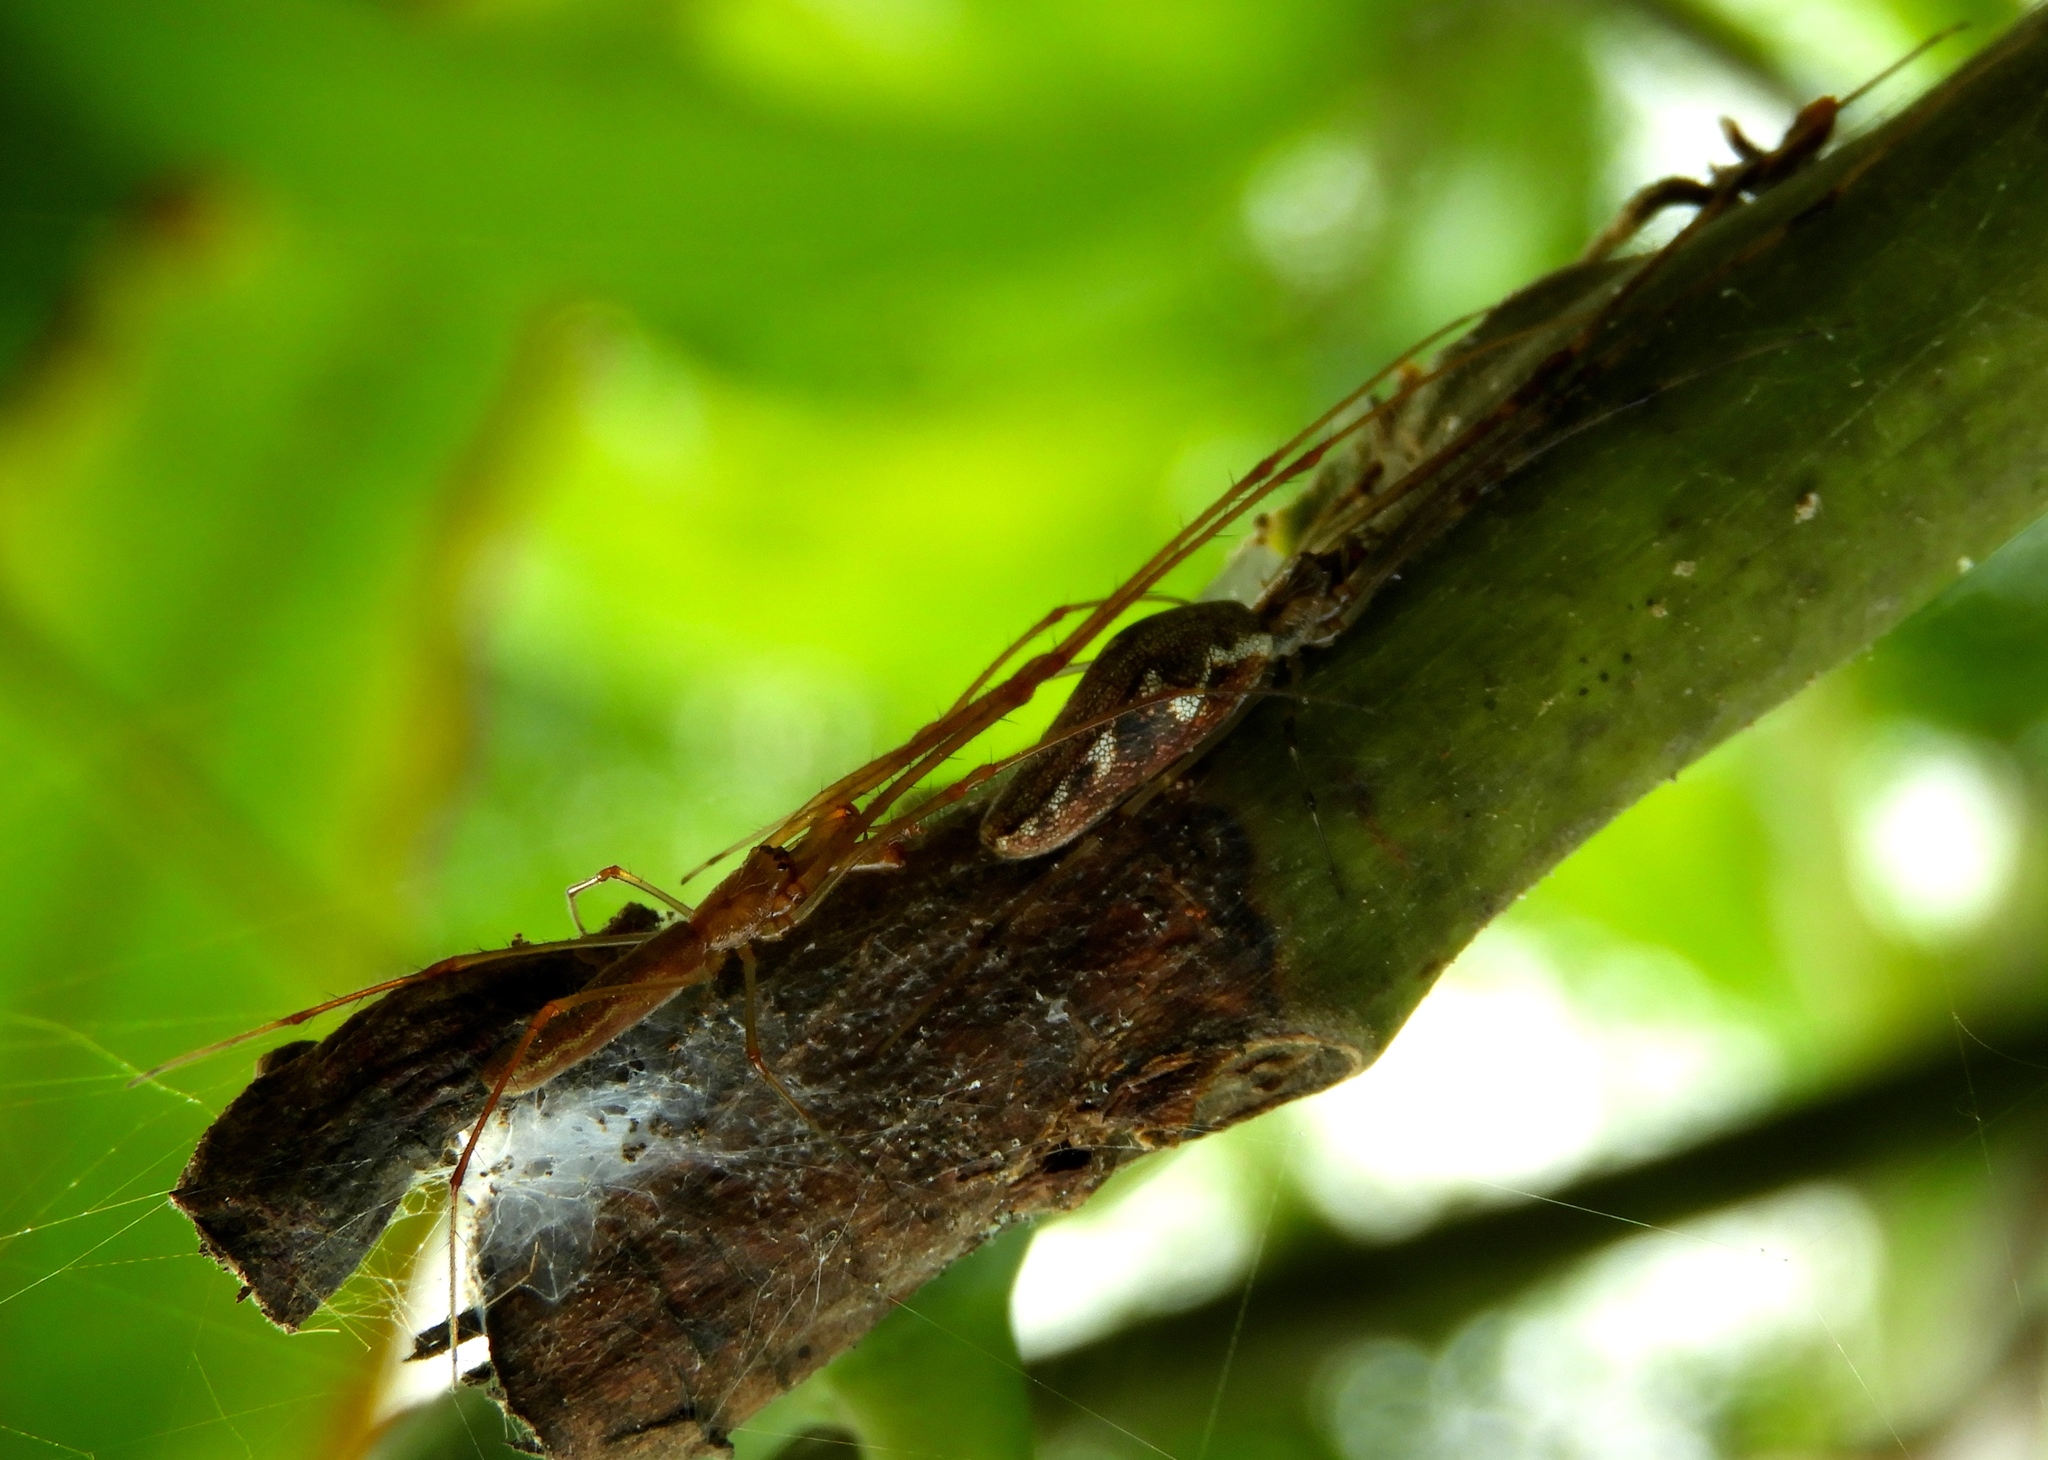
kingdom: Animalia
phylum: Arthropoda
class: Arachnida
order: Araneae
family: Tetragnathidae
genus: Tetragnatha
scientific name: Tetragnatha
